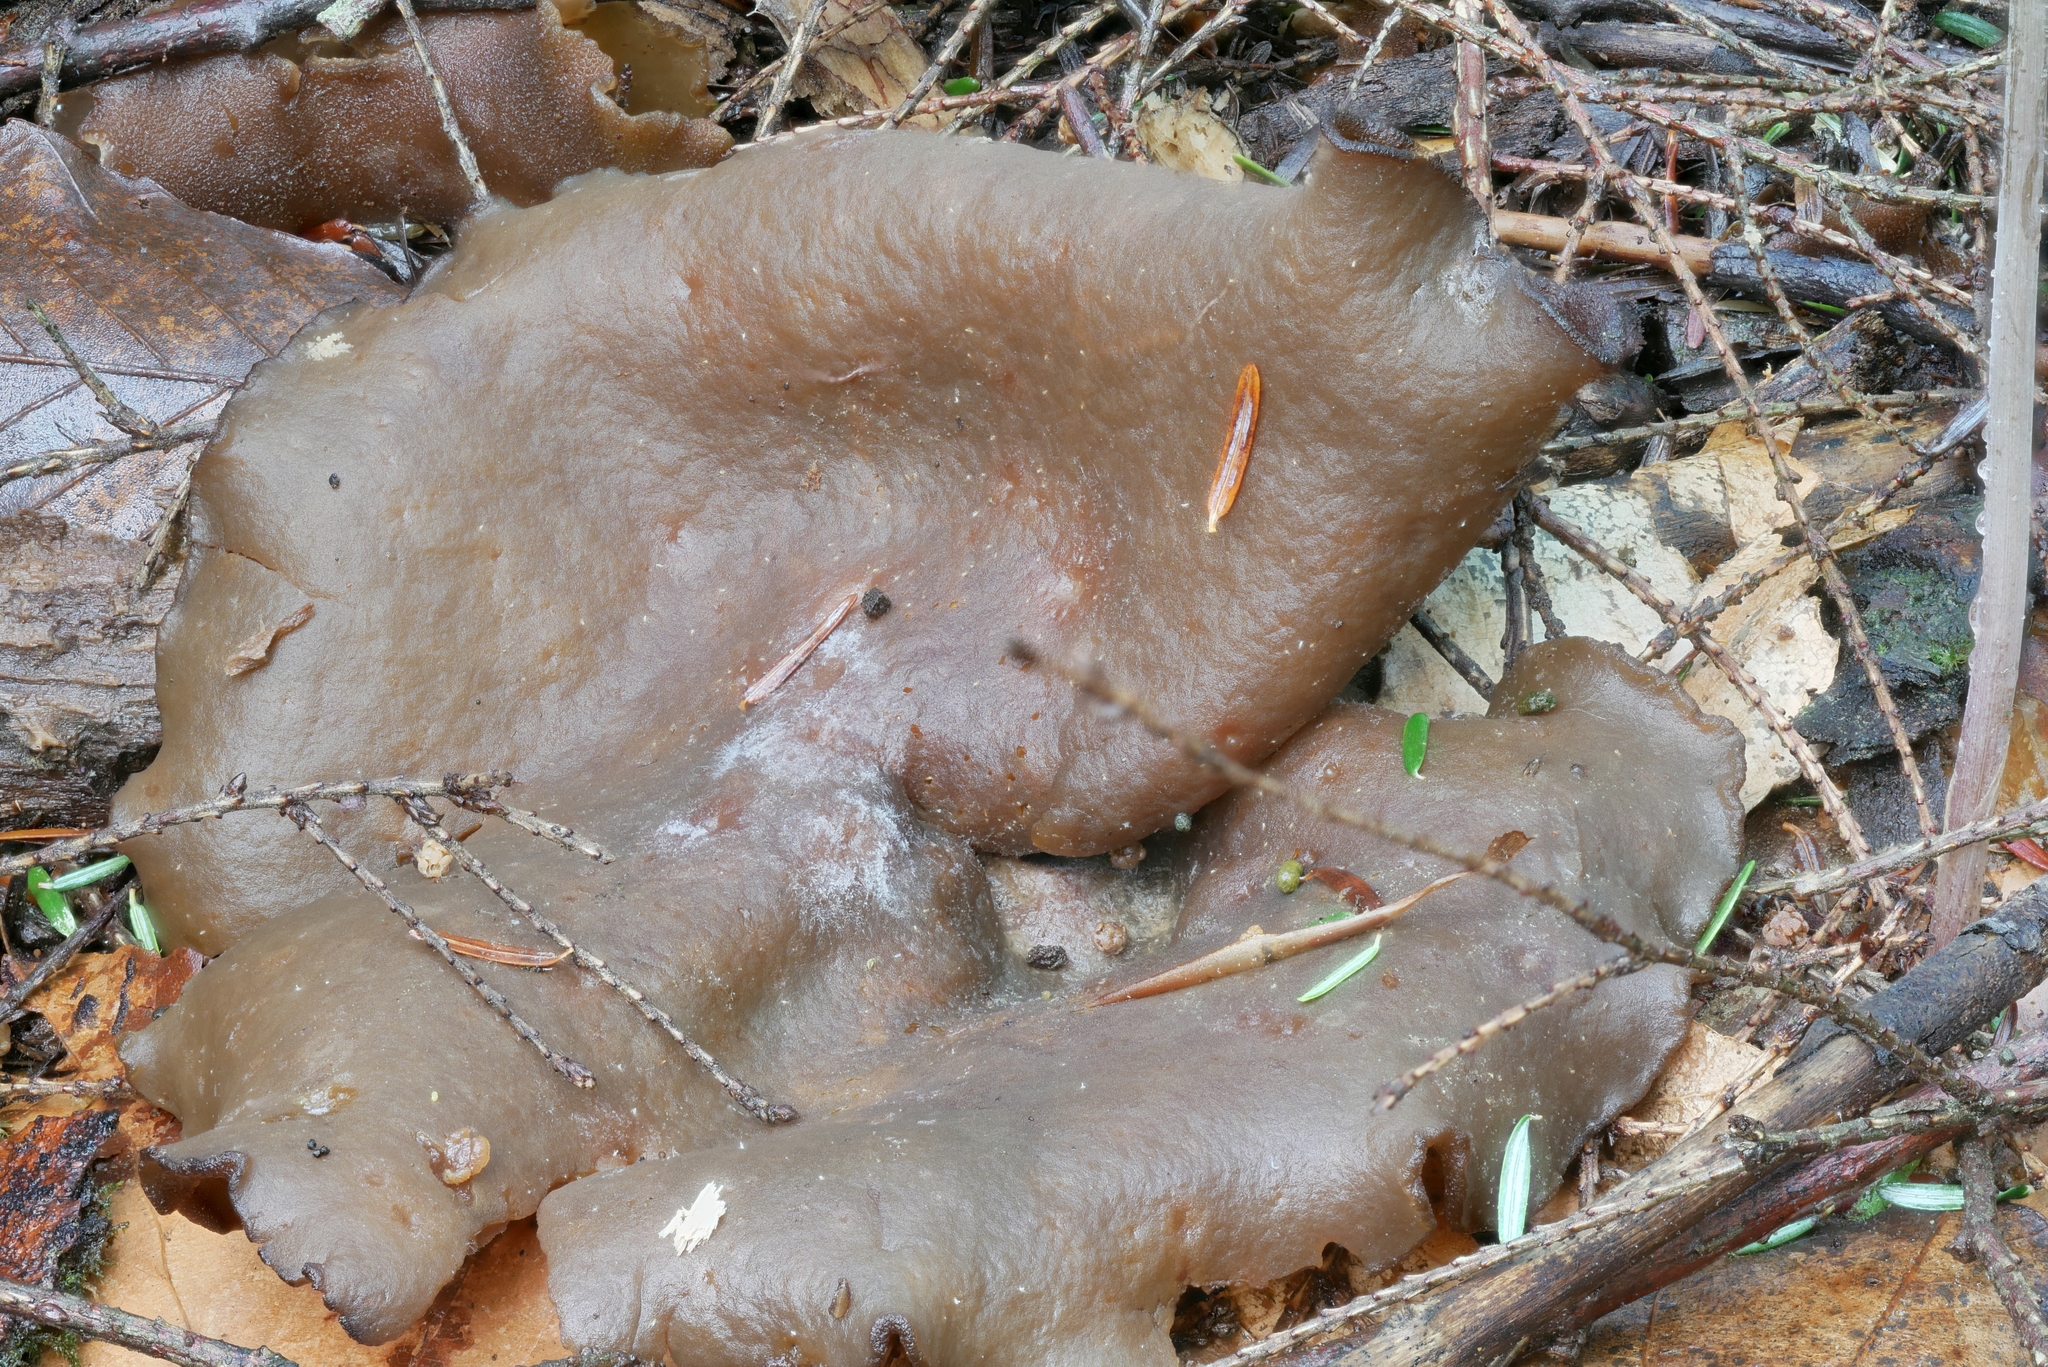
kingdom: Fungi
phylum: Ascomycota
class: Pezizomycetes
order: Pezizales
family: Pezizaceae
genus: Phylloscypha
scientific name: Phylloscypha phyllogena
